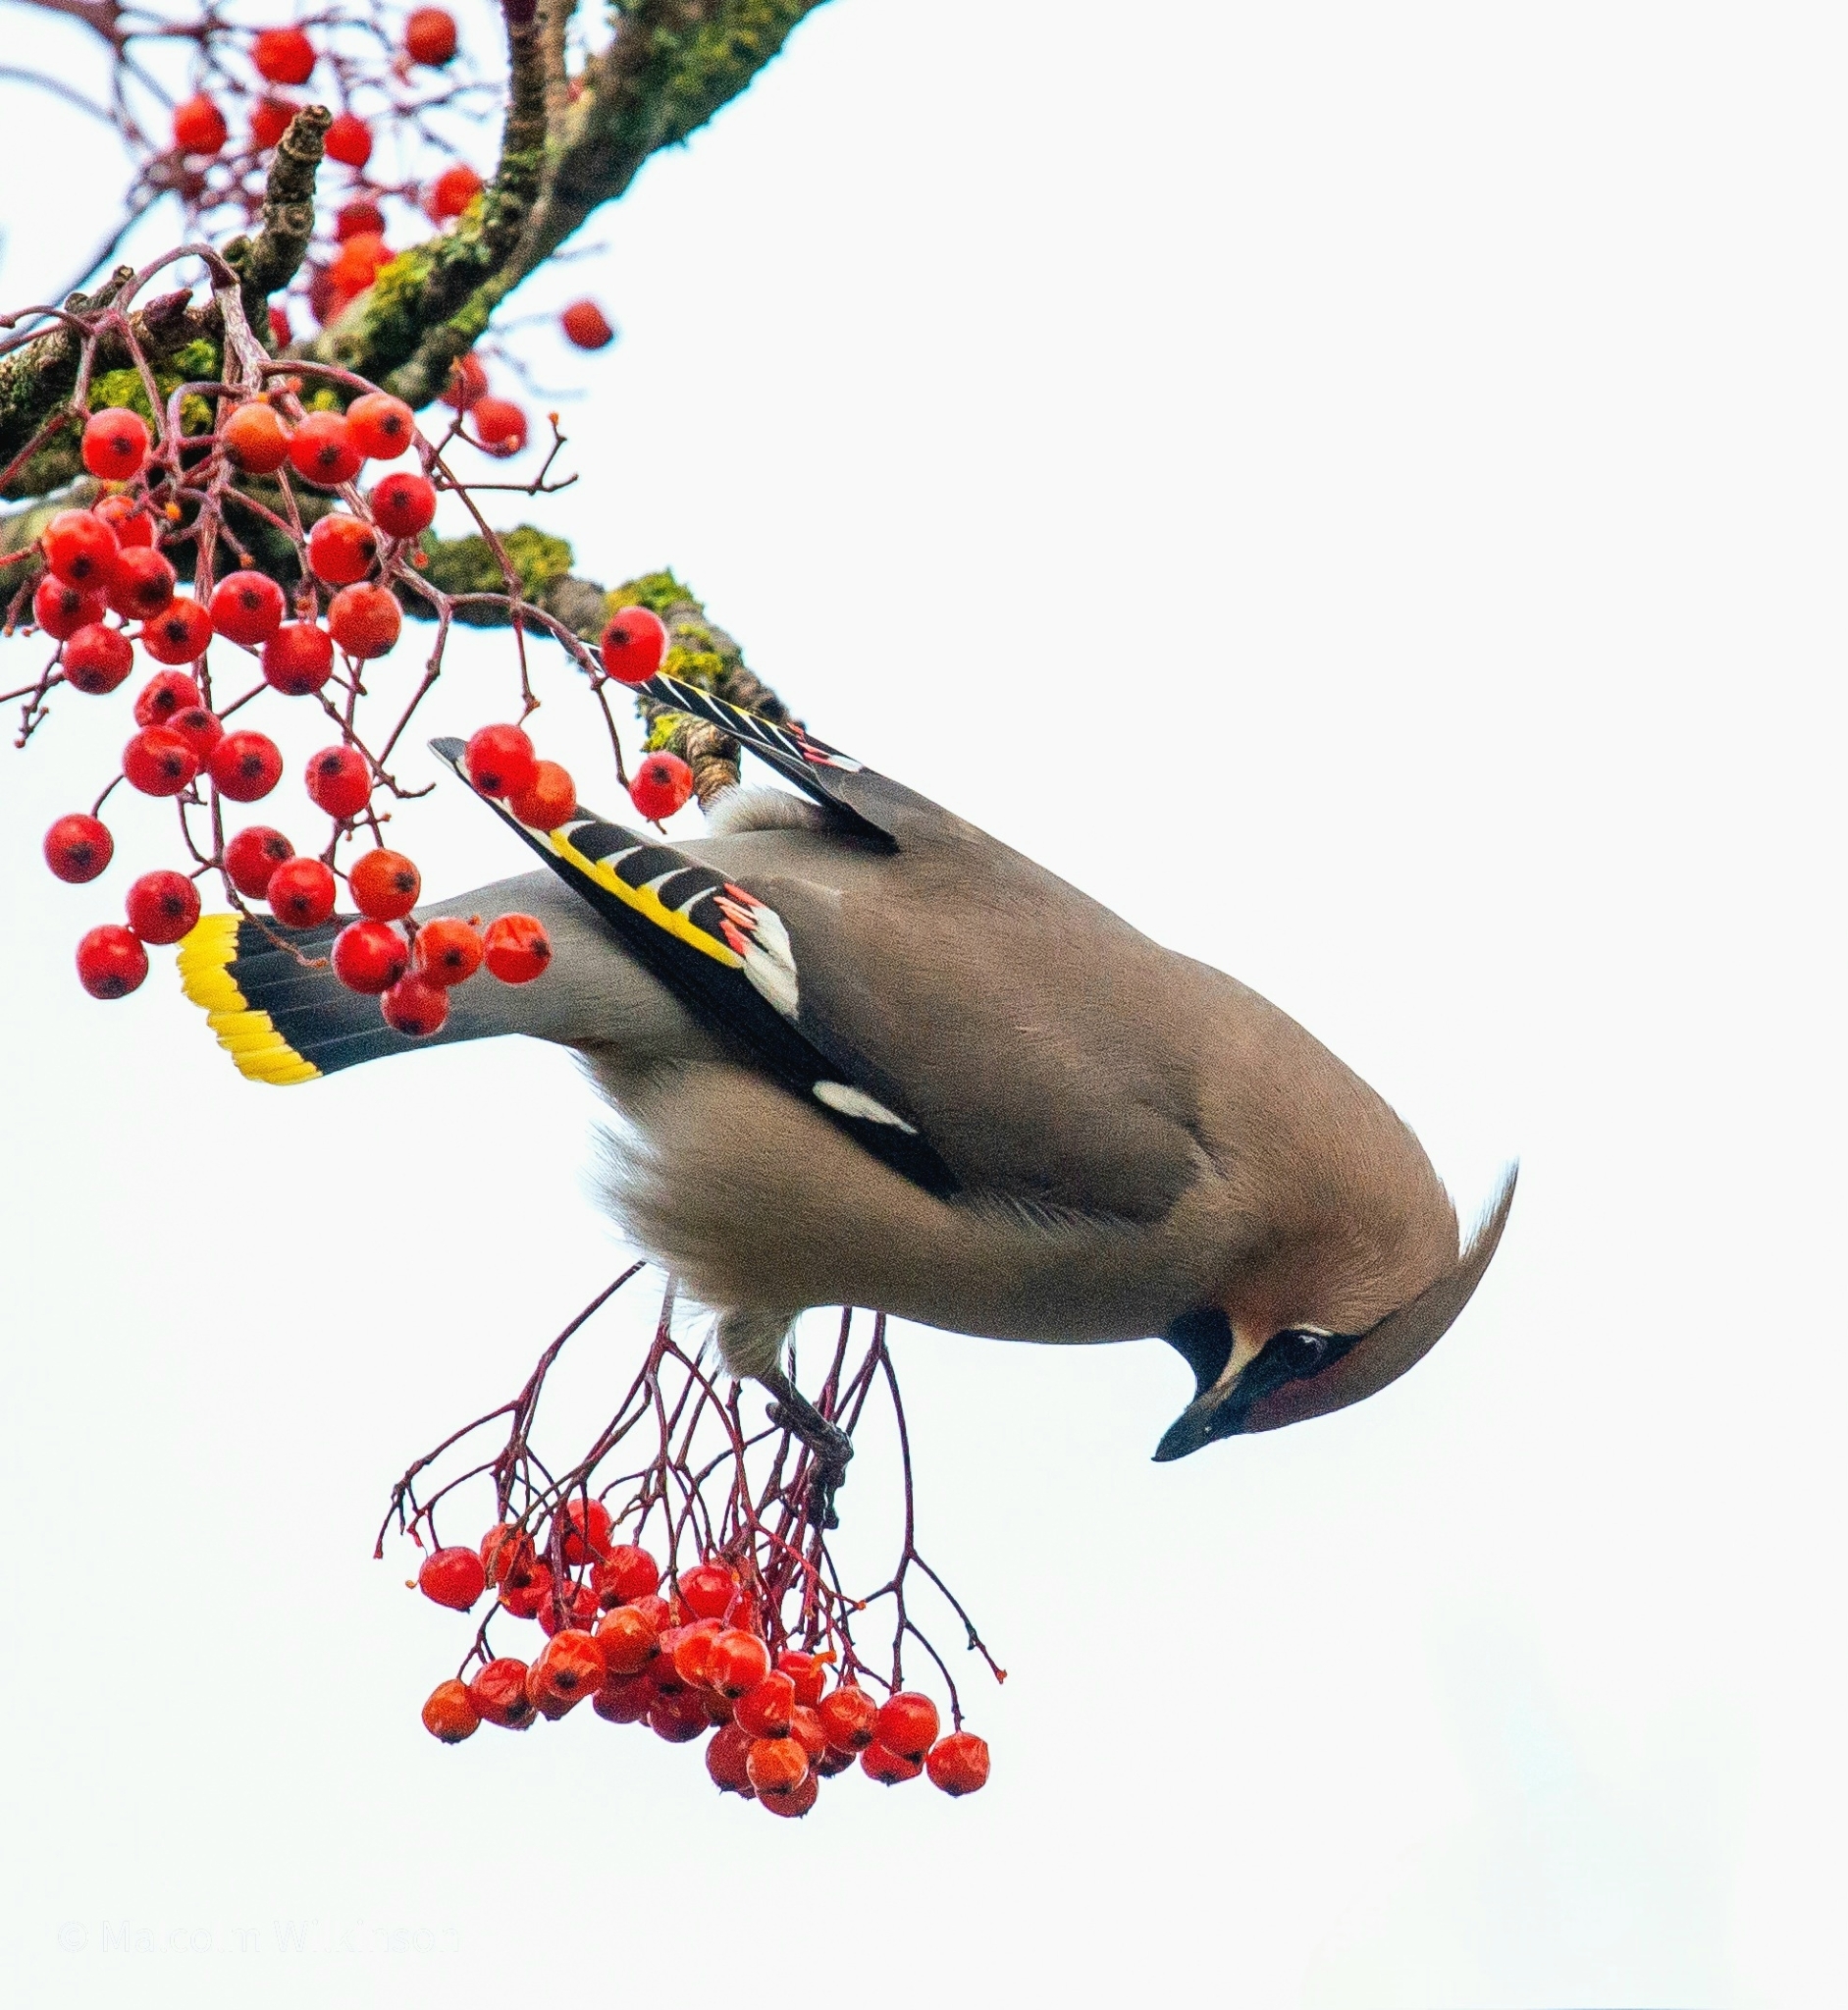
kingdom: Animalia
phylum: Chordata
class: Aves
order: Passeriformes
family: Bombycillidae
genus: Bombycilla
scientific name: Bombycilla garrulus
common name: Bohemian waxwing
